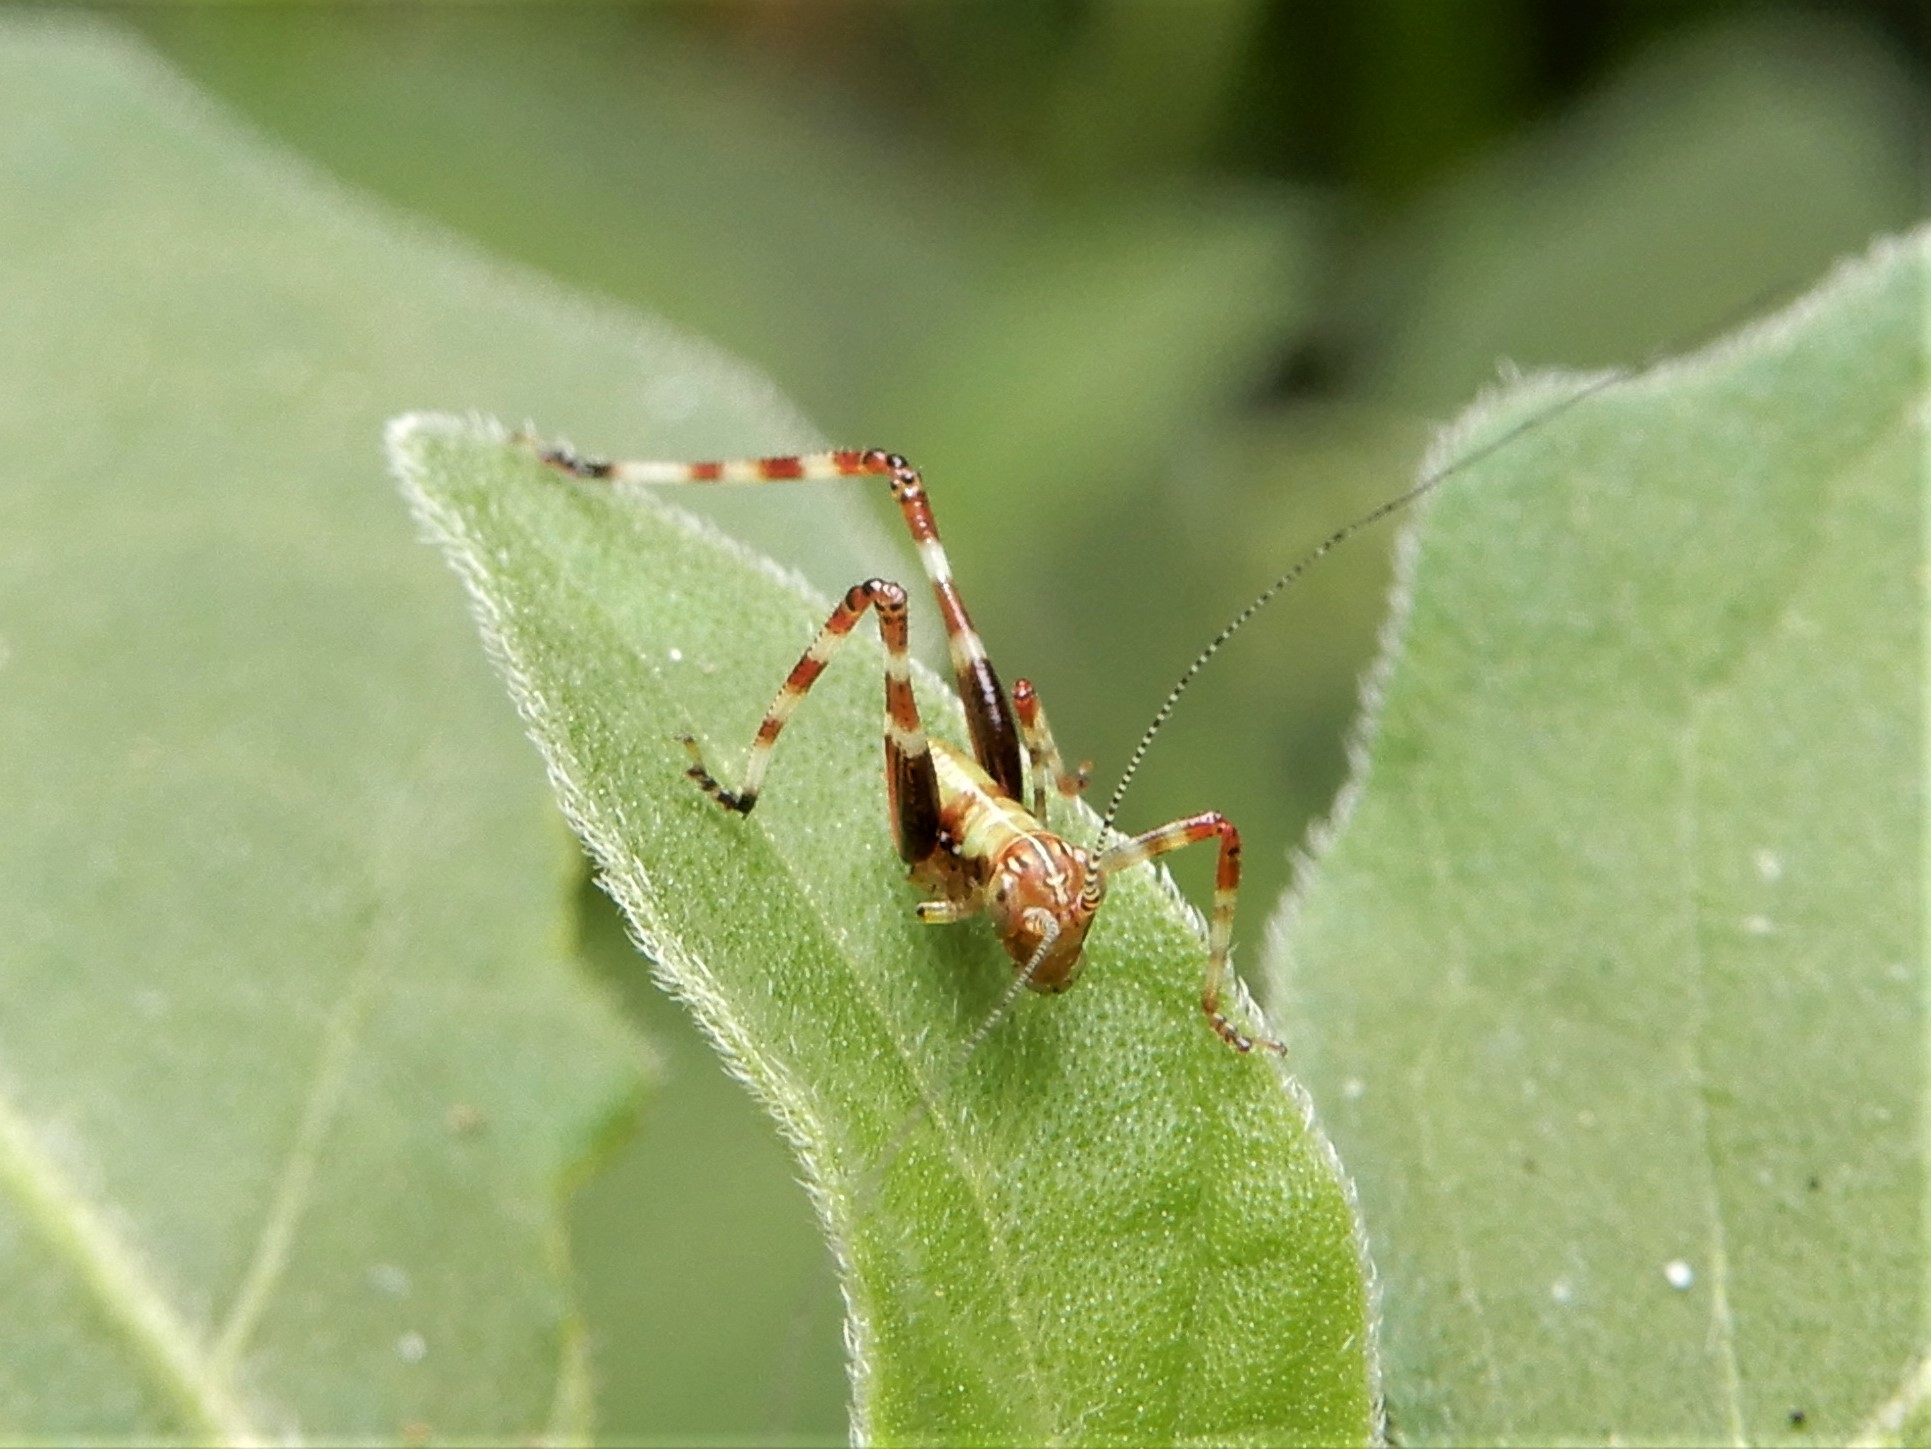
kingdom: Animalia
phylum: Arthropoda
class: Insecta
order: Orthoptera
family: Tettigoniidae
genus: Caedicia
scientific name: Caedicia simplex
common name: Common garden katydid
